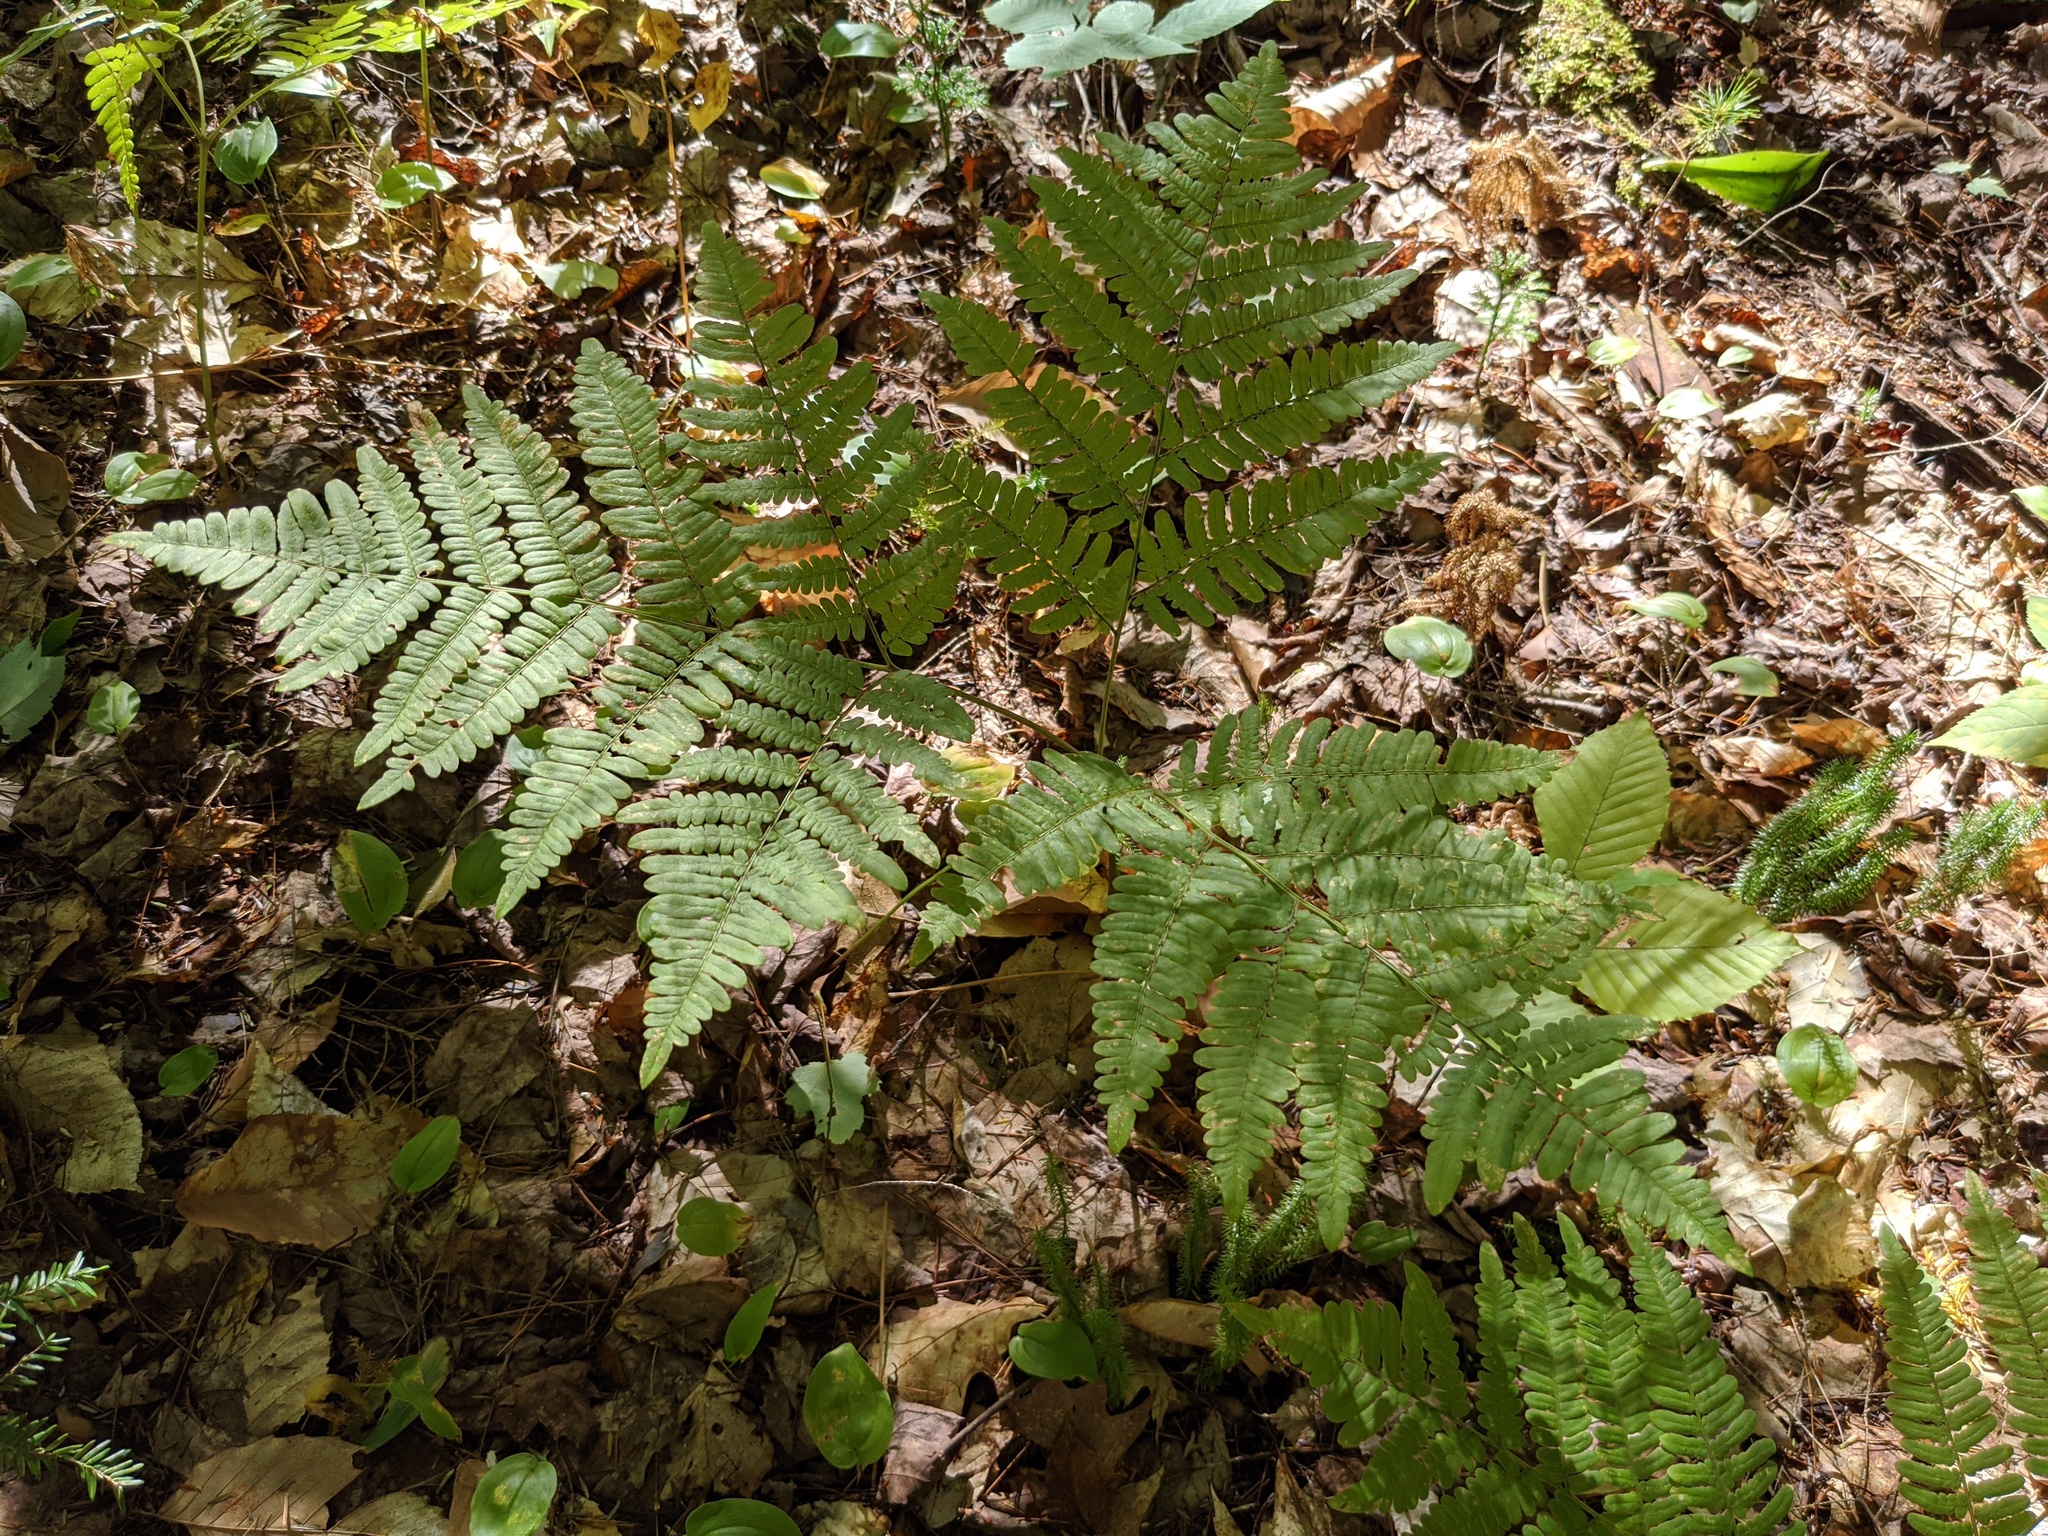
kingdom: Plantae
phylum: Tracheophyta
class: Polypodiopsida
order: Polypodiales
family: Dennstaedtiaceae
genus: Pteridium
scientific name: Pteridium aquilinum
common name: Bracken
